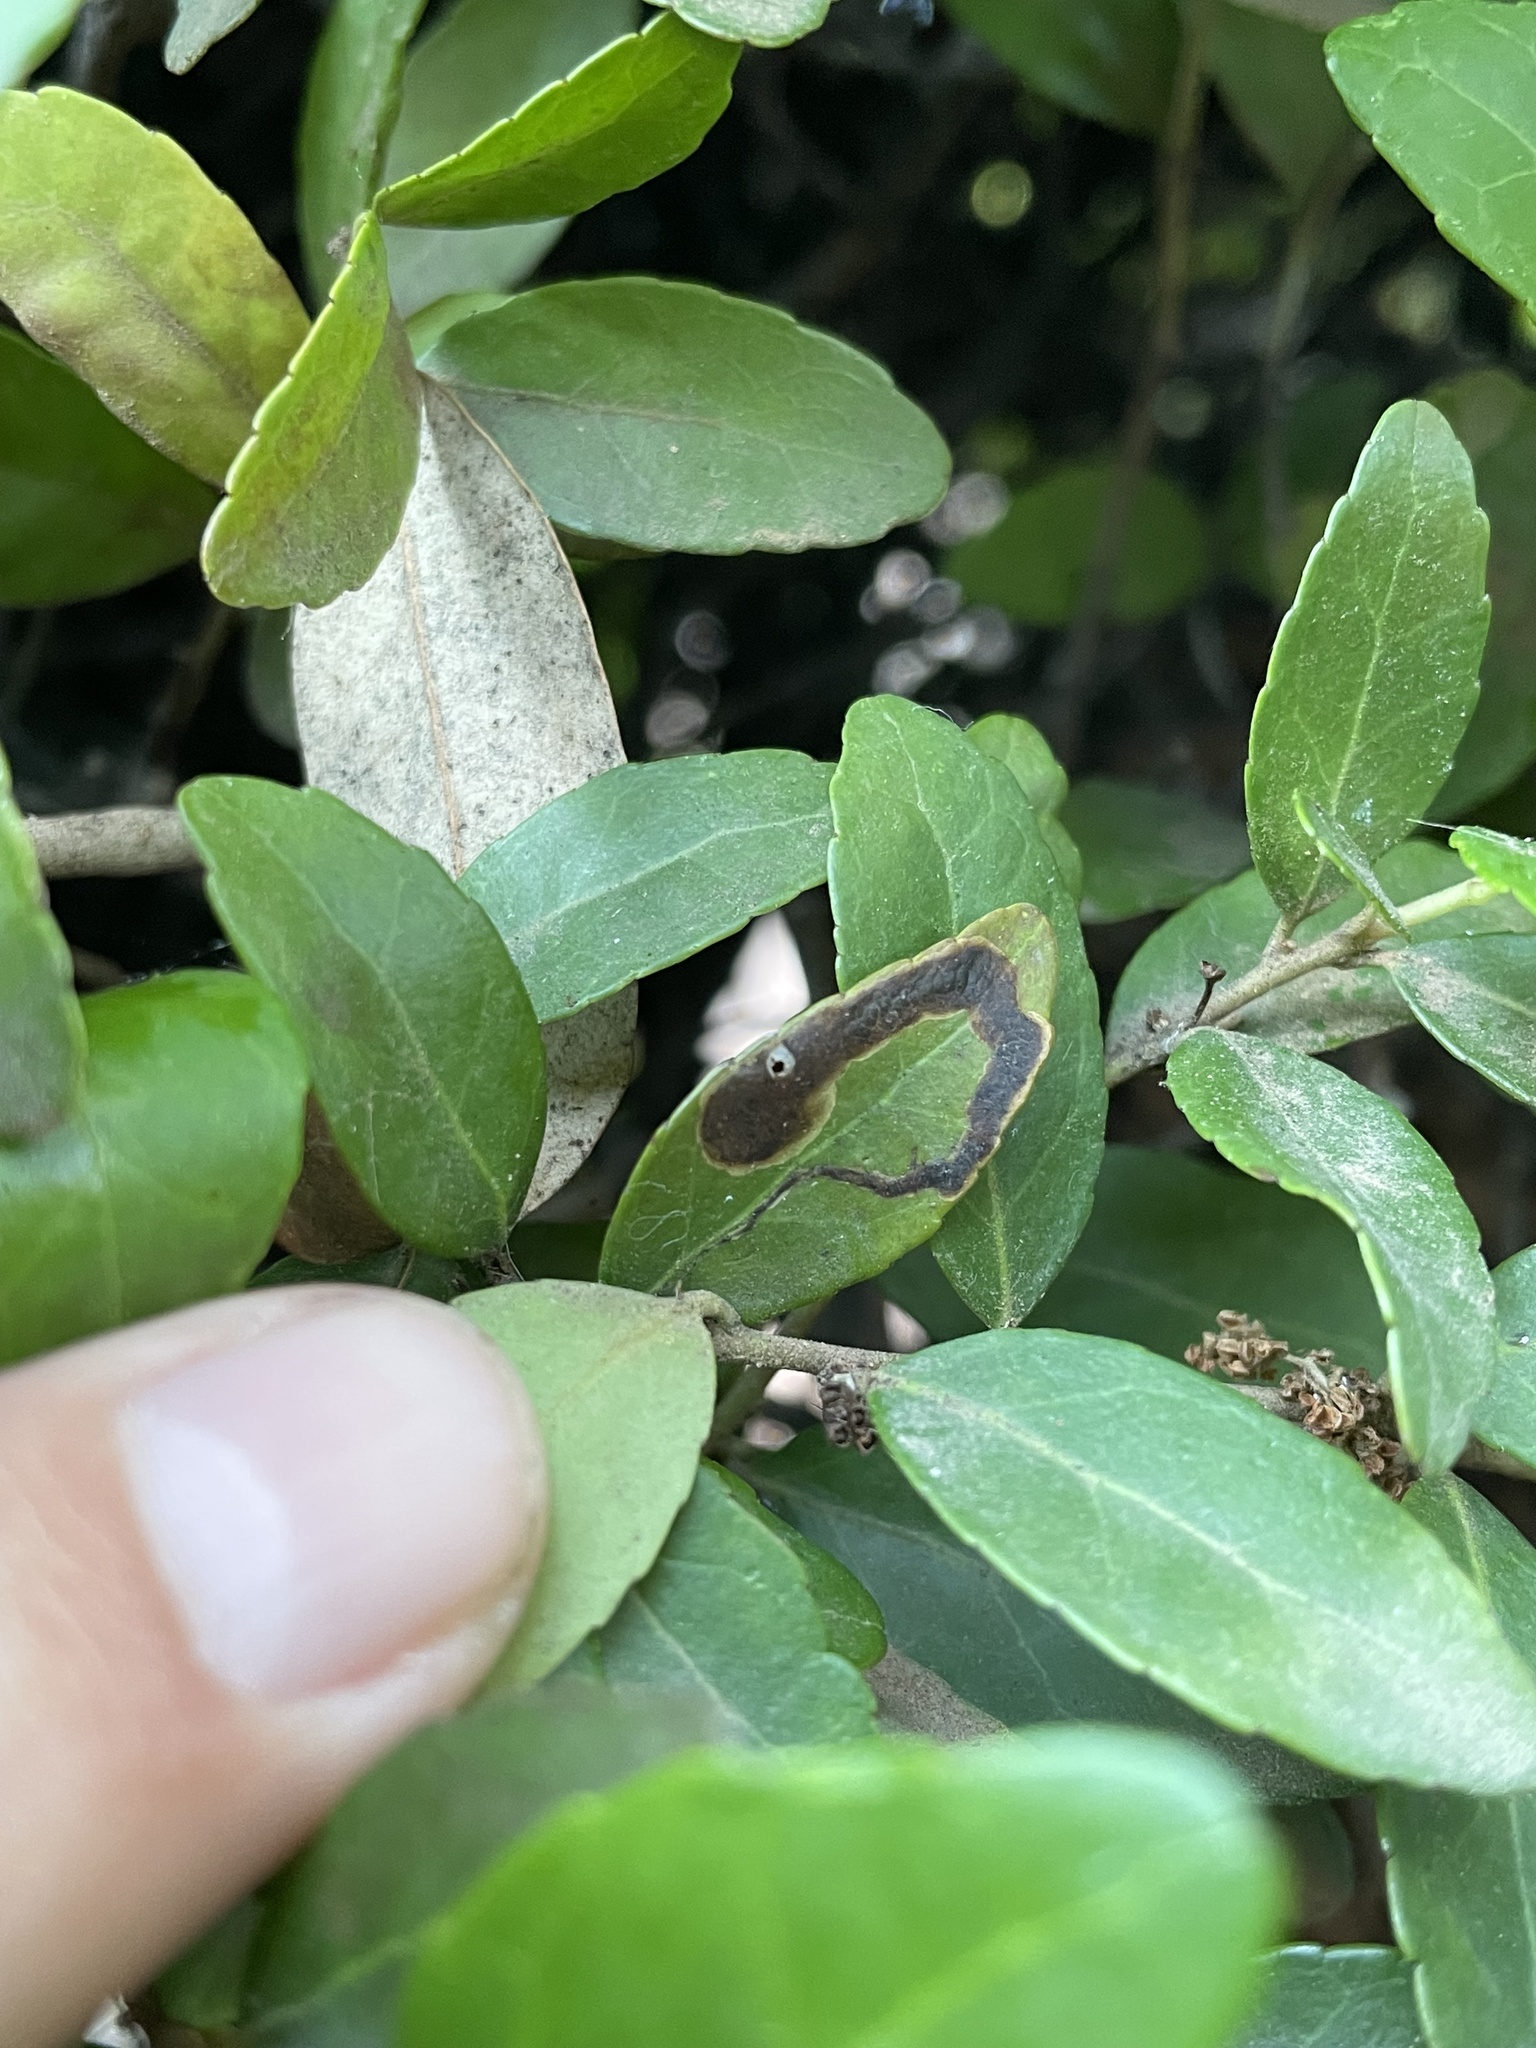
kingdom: Animalia
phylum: Arthropoda
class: Insecta
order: Diptera
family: Agromyzidae
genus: Phytomyza
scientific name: Phytomyza vomitoriae
